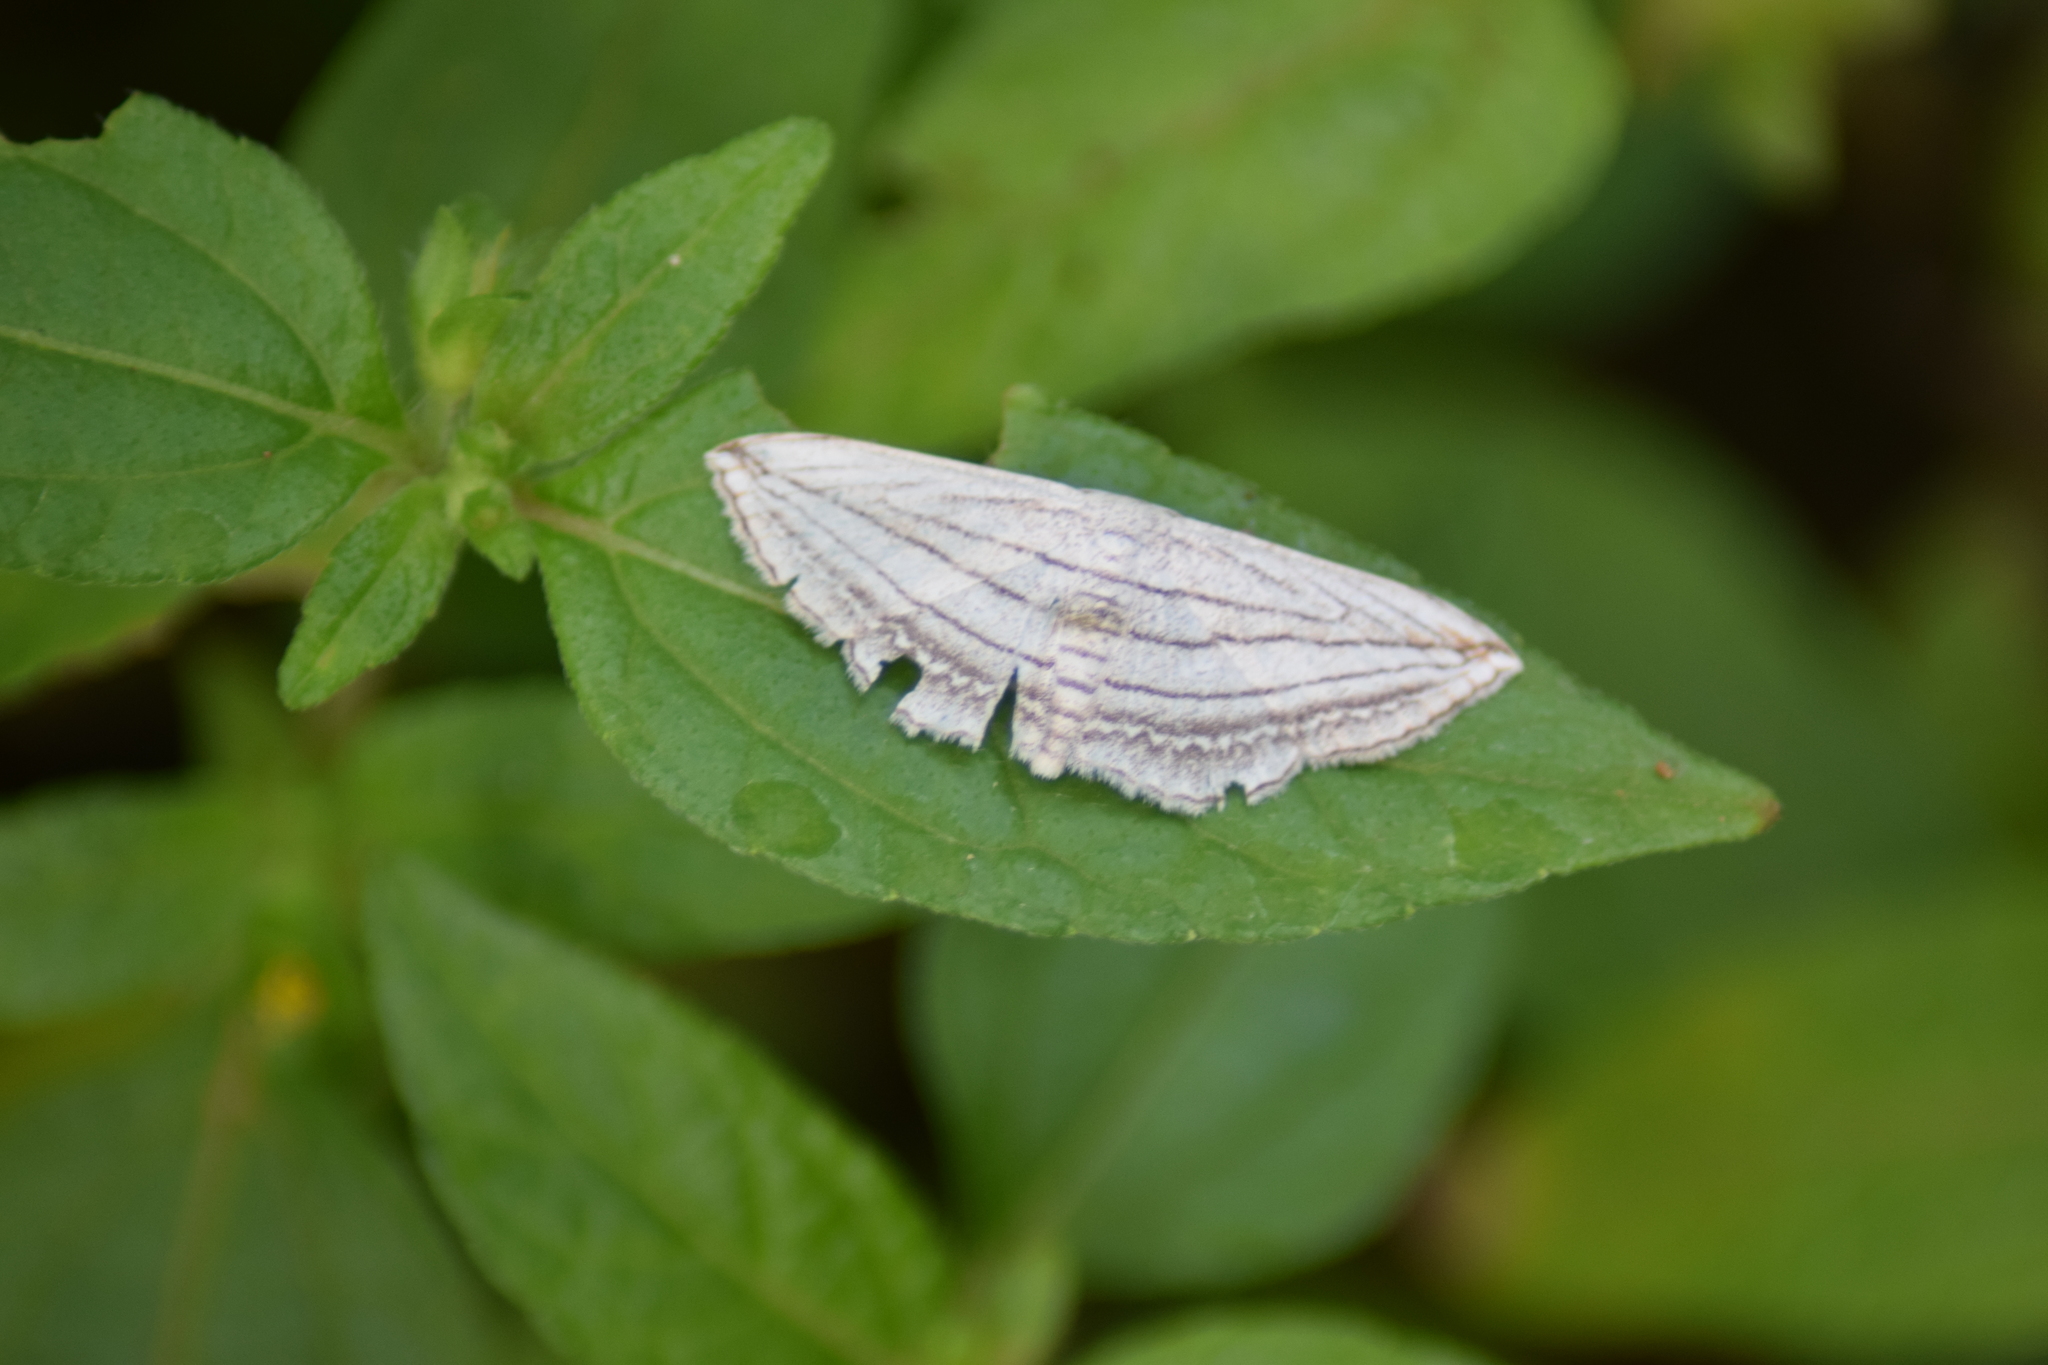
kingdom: Animalia
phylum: Arthropoda
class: Insecta
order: Lepidoptera
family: Geometridae
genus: Scopula
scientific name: Scopula opicata
